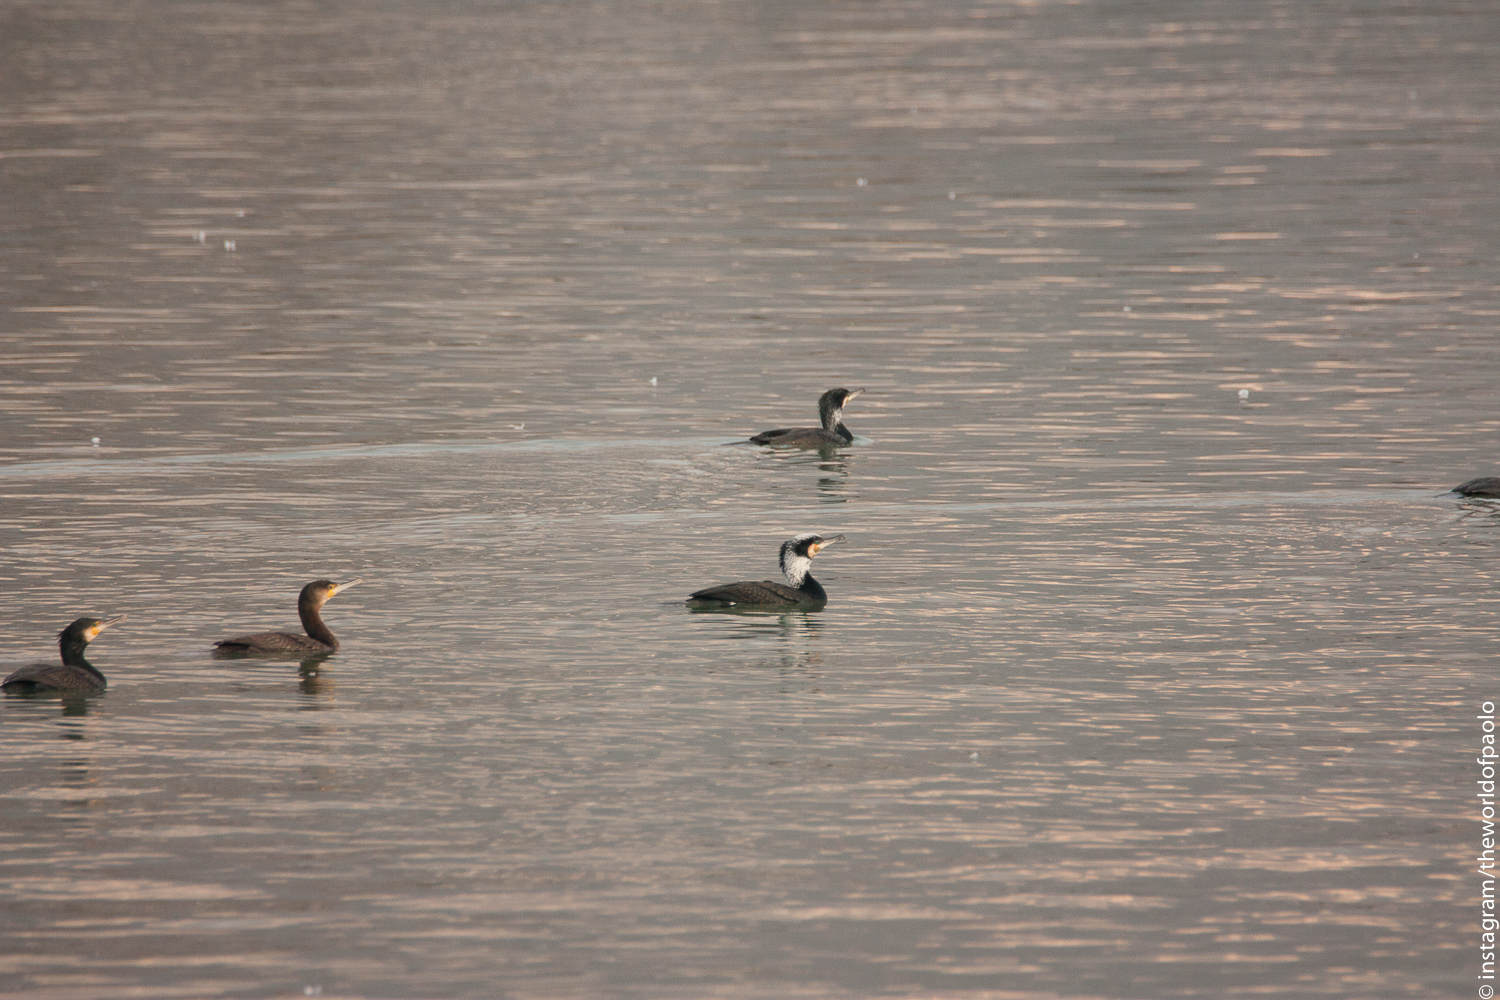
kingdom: Animalia
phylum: Chordata
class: Aves
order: Suliformes
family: Phalacrocoracidae
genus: Phalacrocorax
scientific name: Phalacrocorax carbo
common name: Great cormorant
